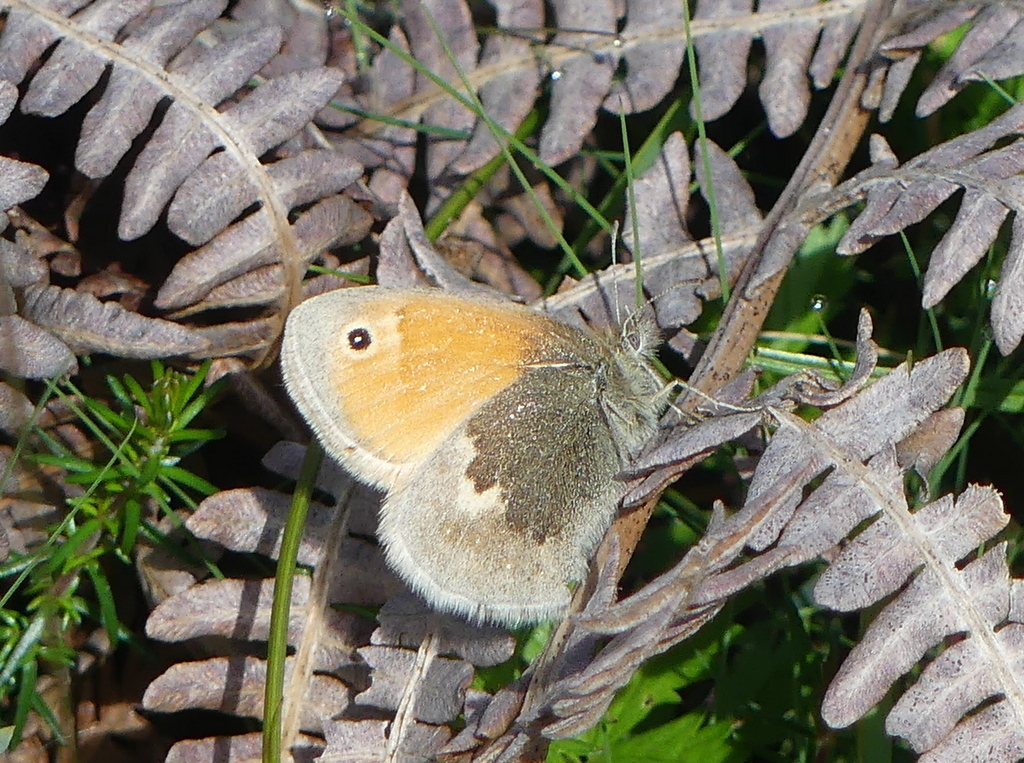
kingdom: Animalia
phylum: Arthropoda
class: Insecta
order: Lepidoptera
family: Nymphalidae
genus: Coenonympha
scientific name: Coenonympha pamphilus
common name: Small heath
